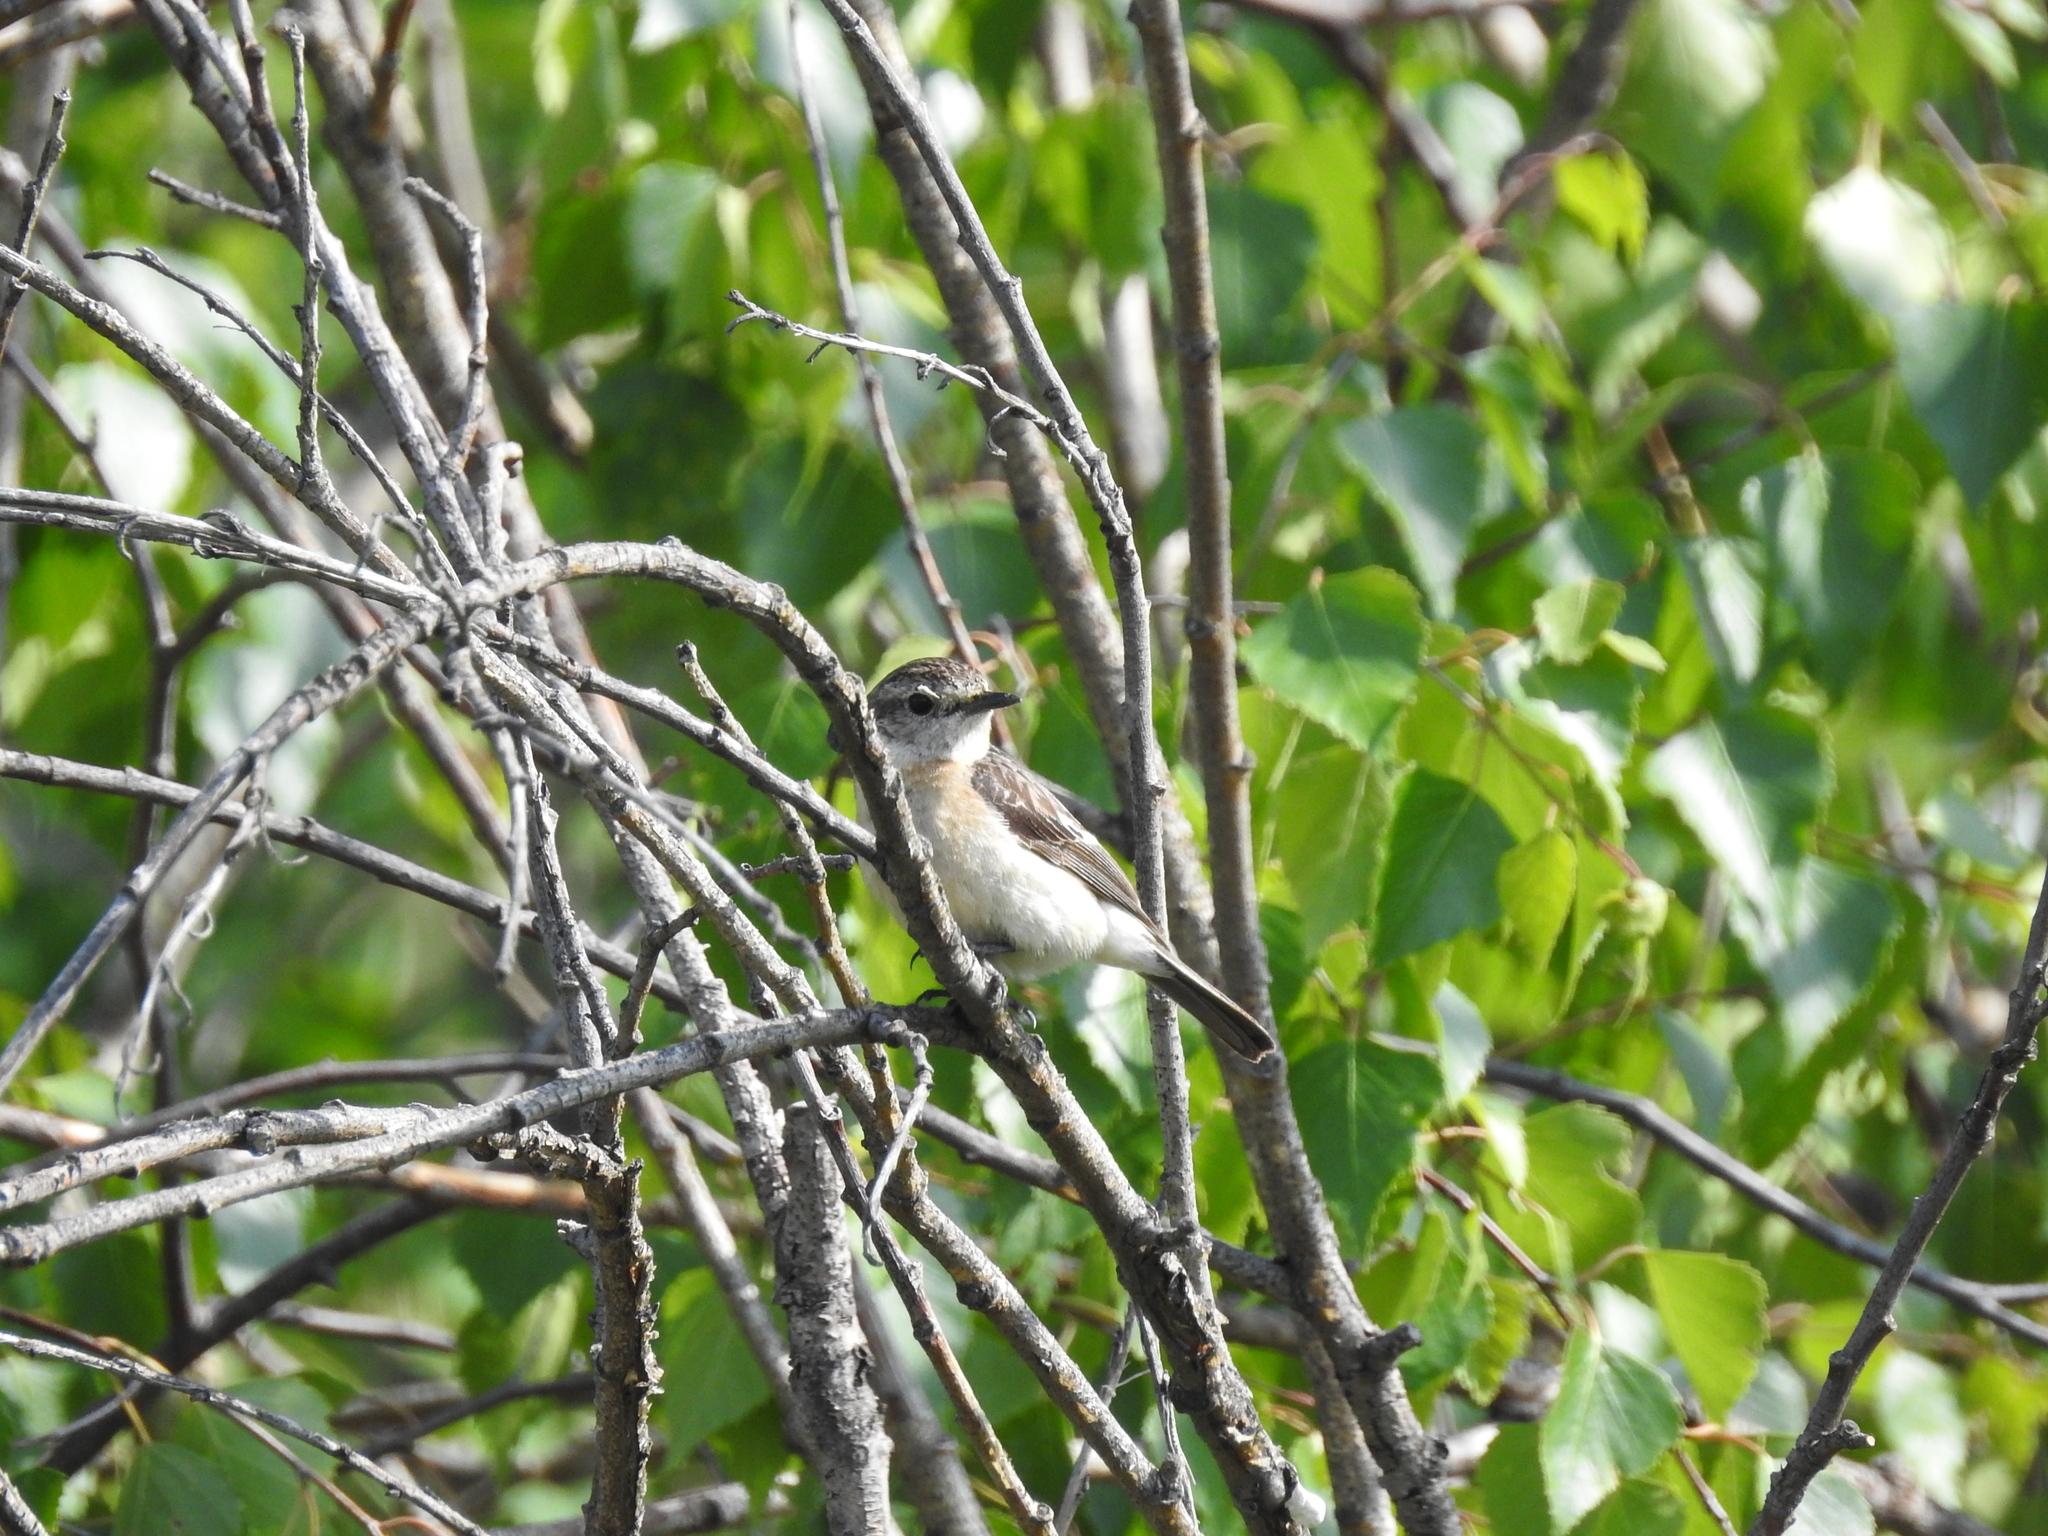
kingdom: Animalia
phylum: Chordata
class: Aves
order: Passeriformes
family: Muscicapidae
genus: Saxicola
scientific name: Saxicola maurus
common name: Siberian stonechat
